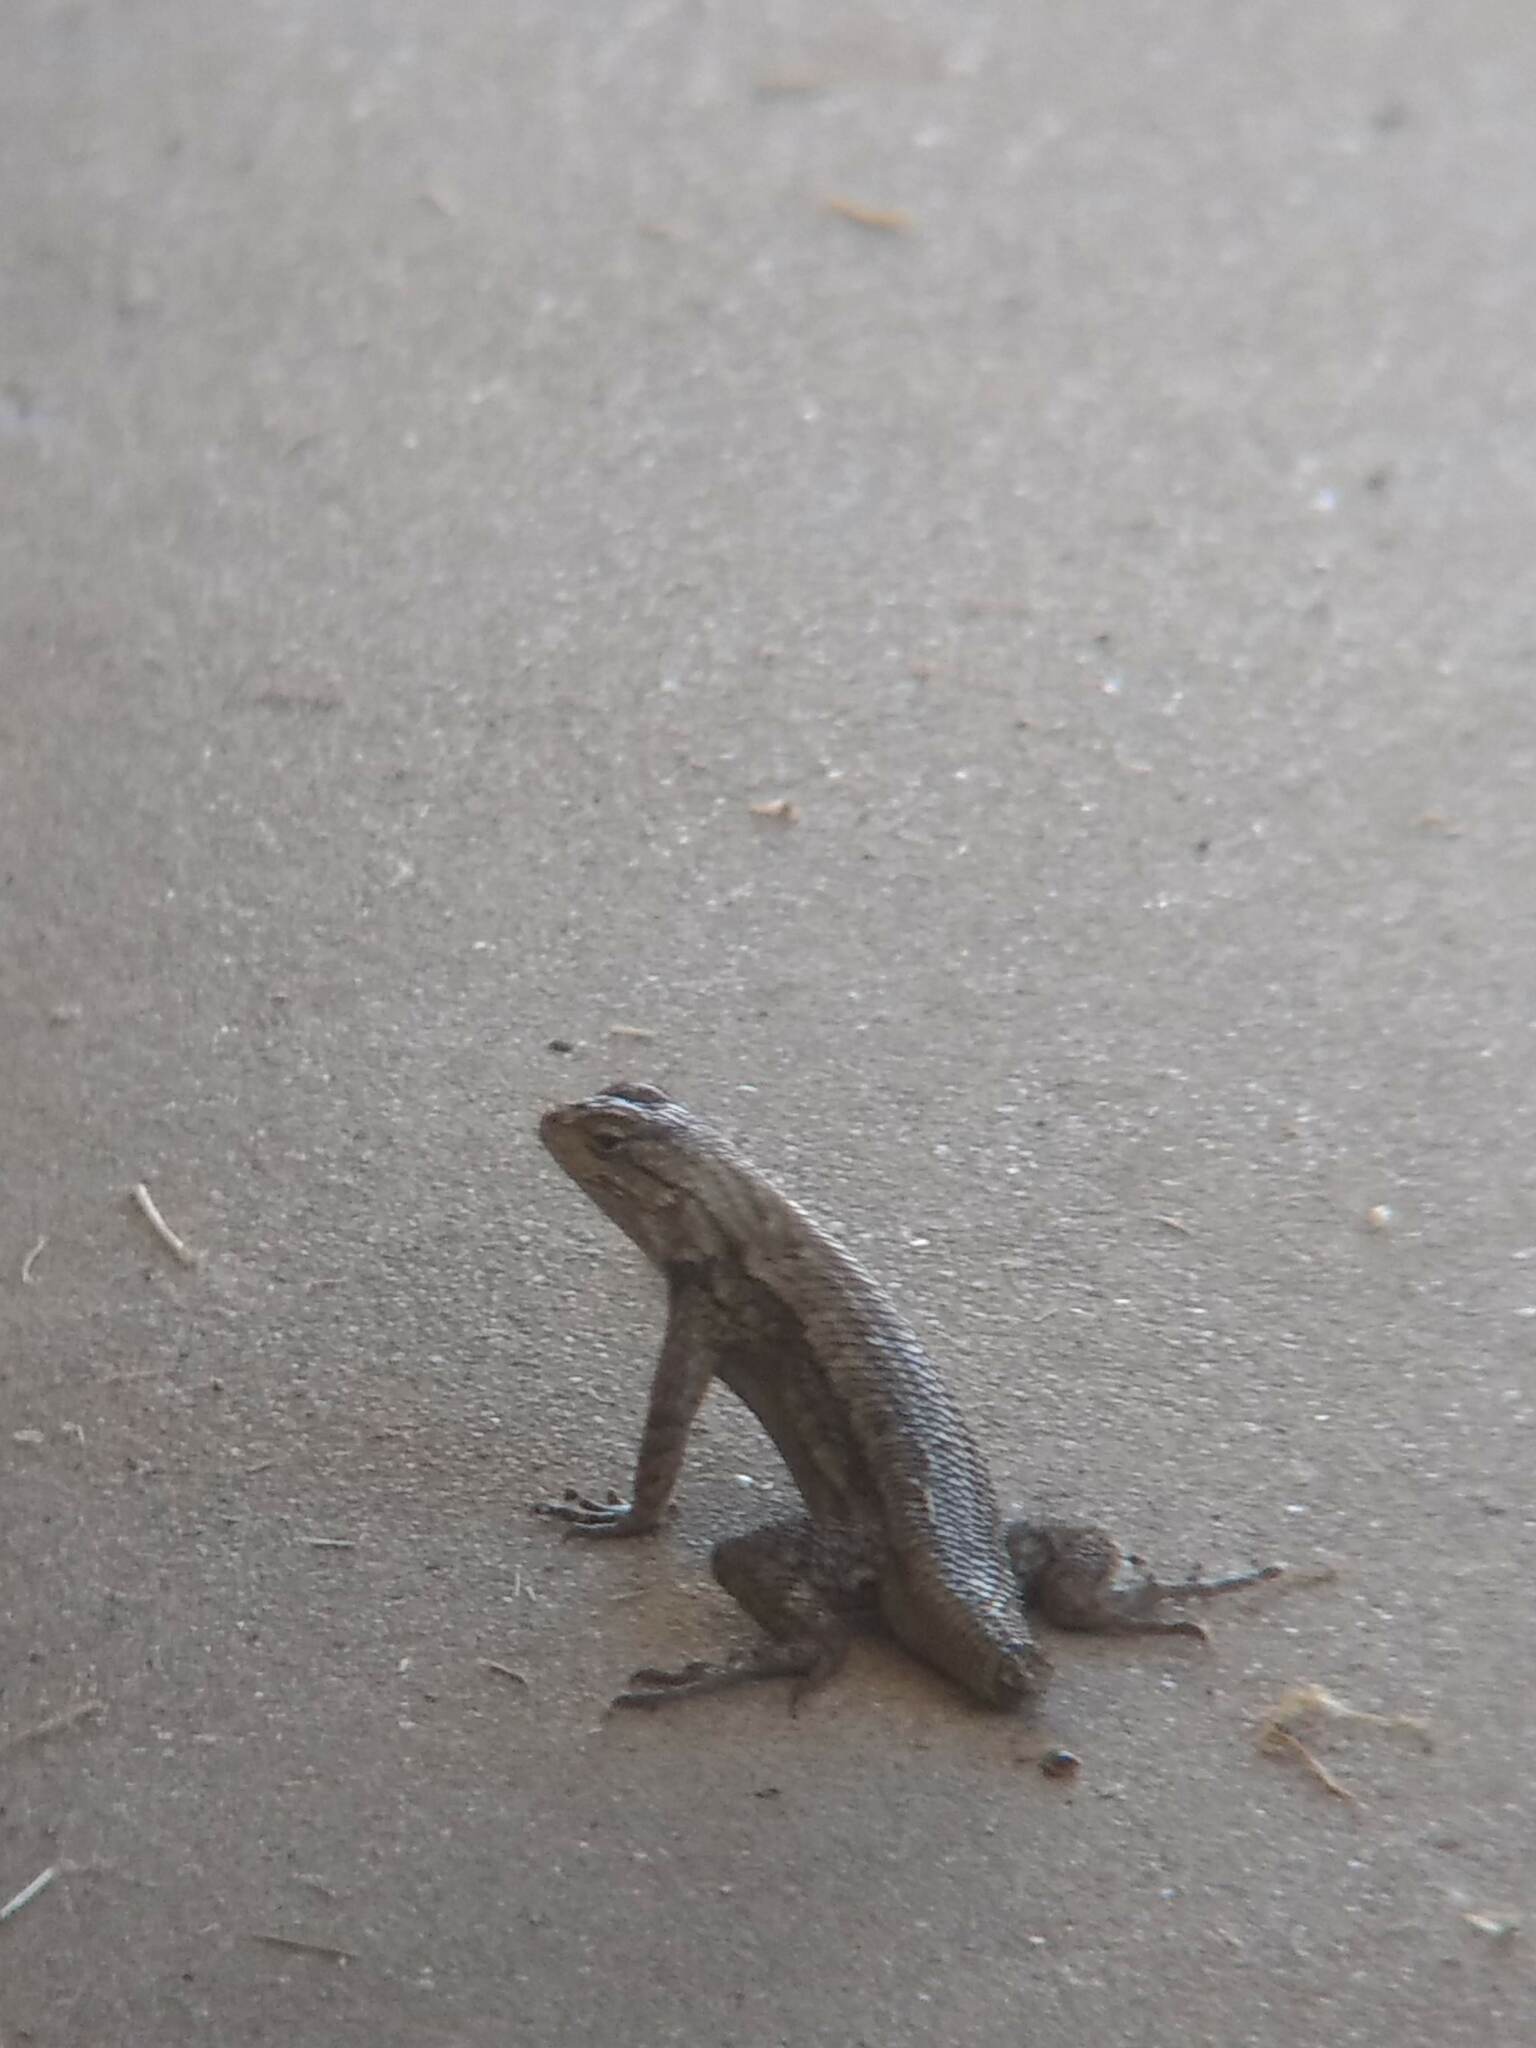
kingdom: Animalia
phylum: Chordata
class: Squamata
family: Phrynosomatidae
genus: Sceloporus
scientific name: Sceloporus occidentalis
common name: Western fence lizard
